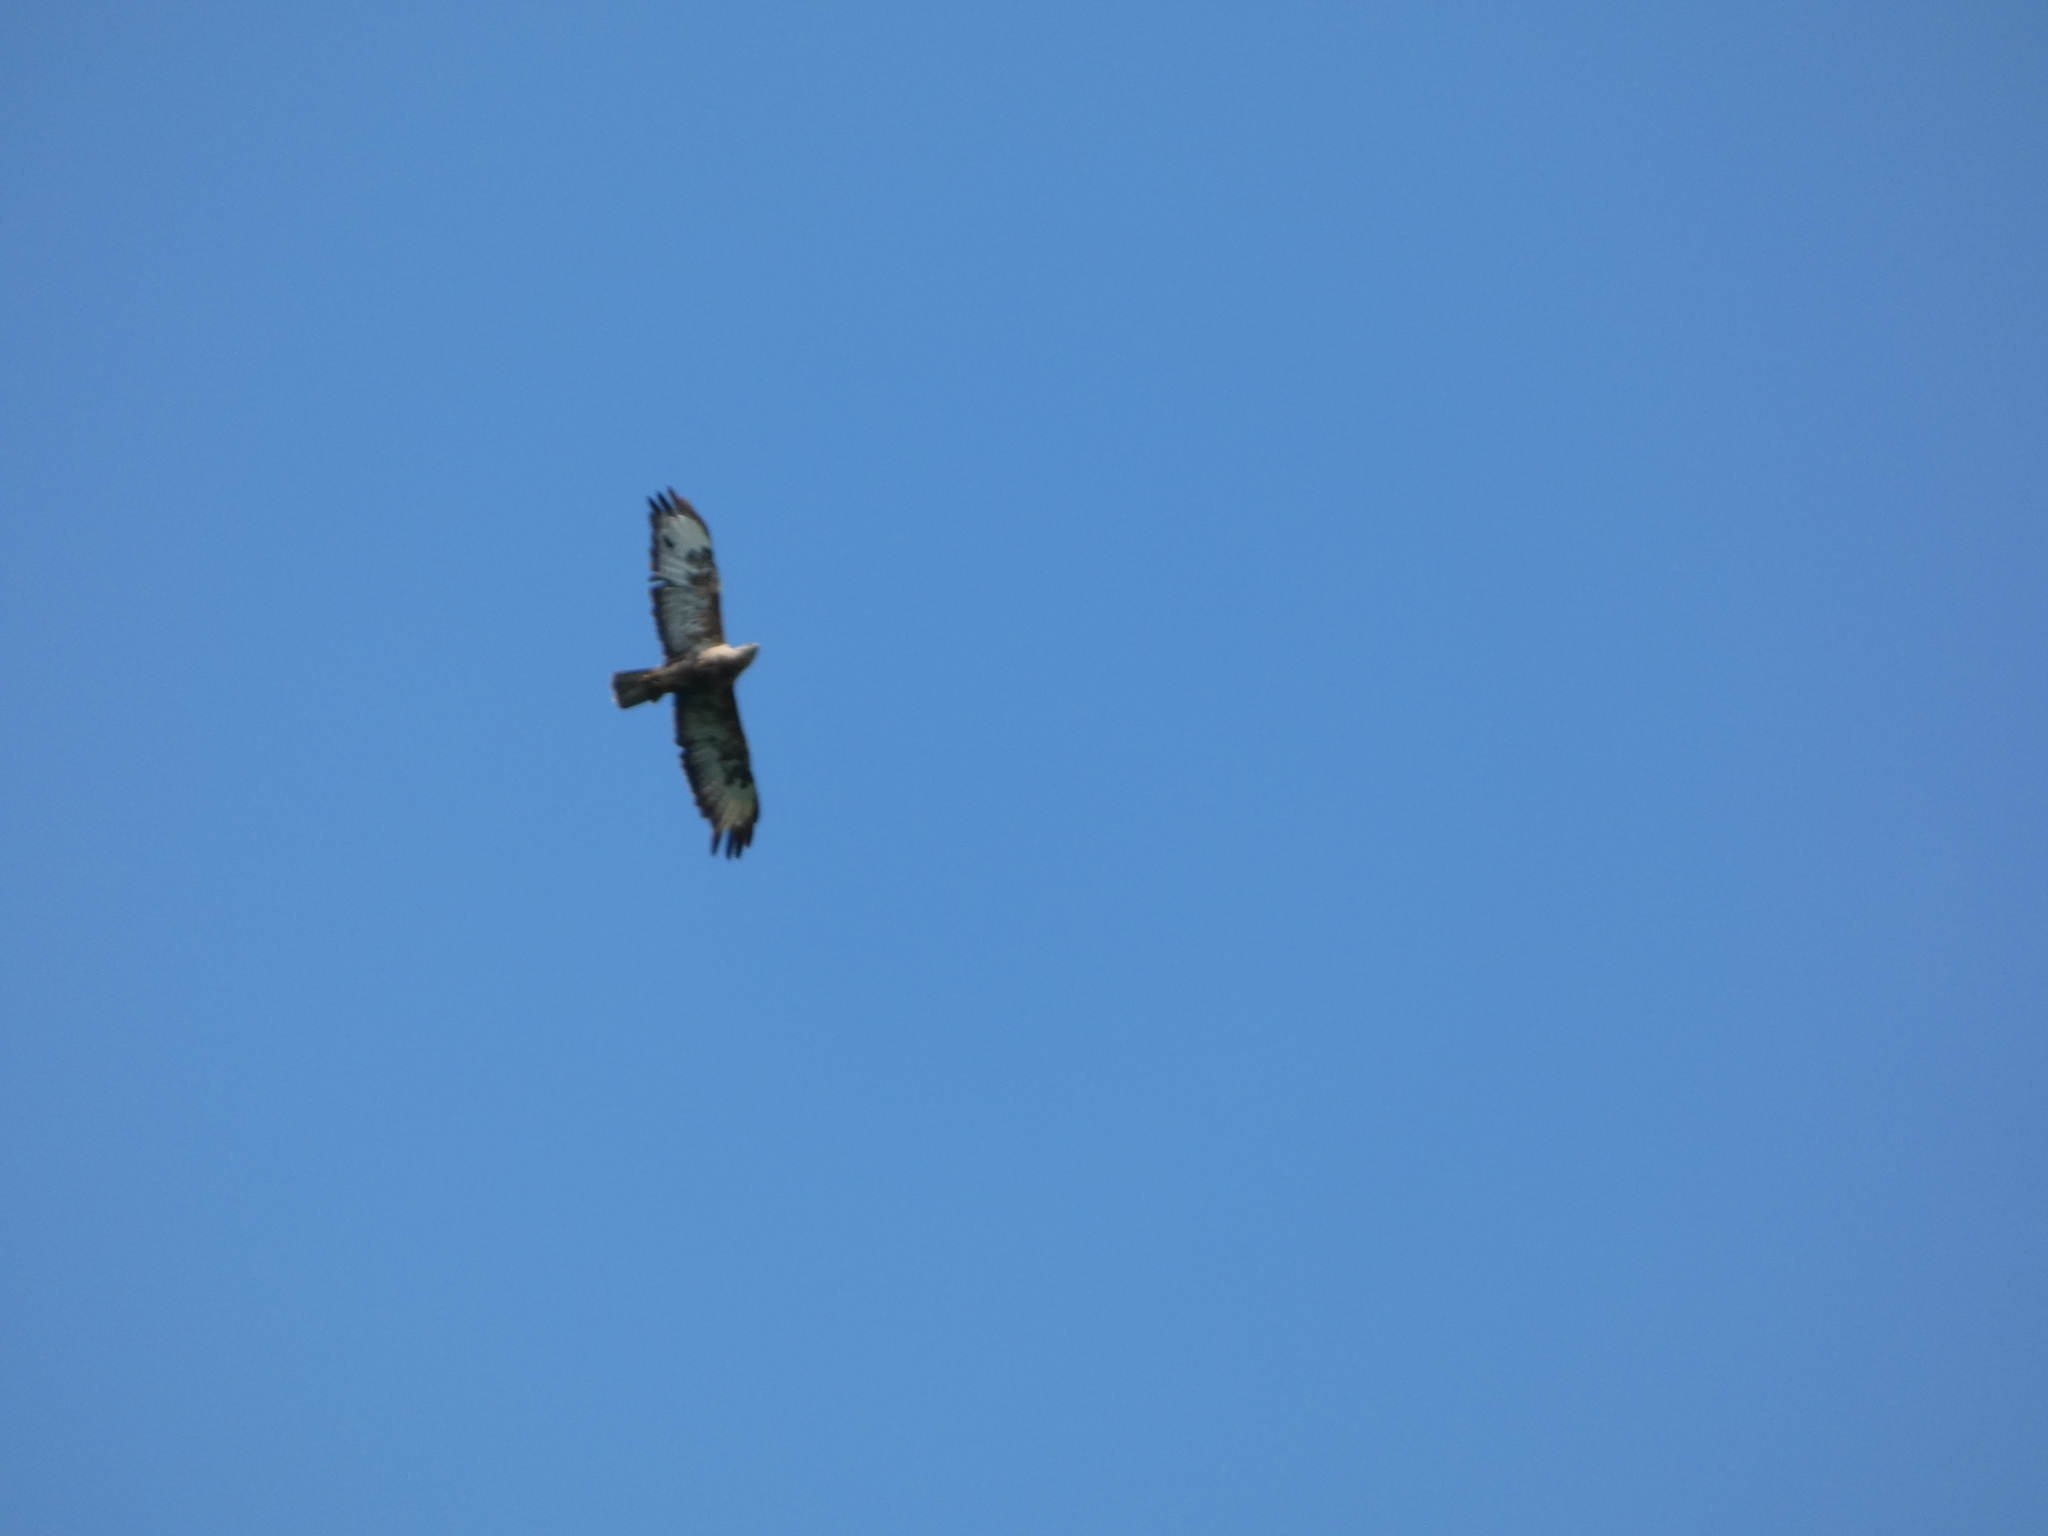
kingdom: Animalia
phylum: Chordata
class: Aves
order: Accipitriformes
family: Accipitridae
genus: Pernis
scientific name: Pernis apivorus
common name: European honey buzzard
